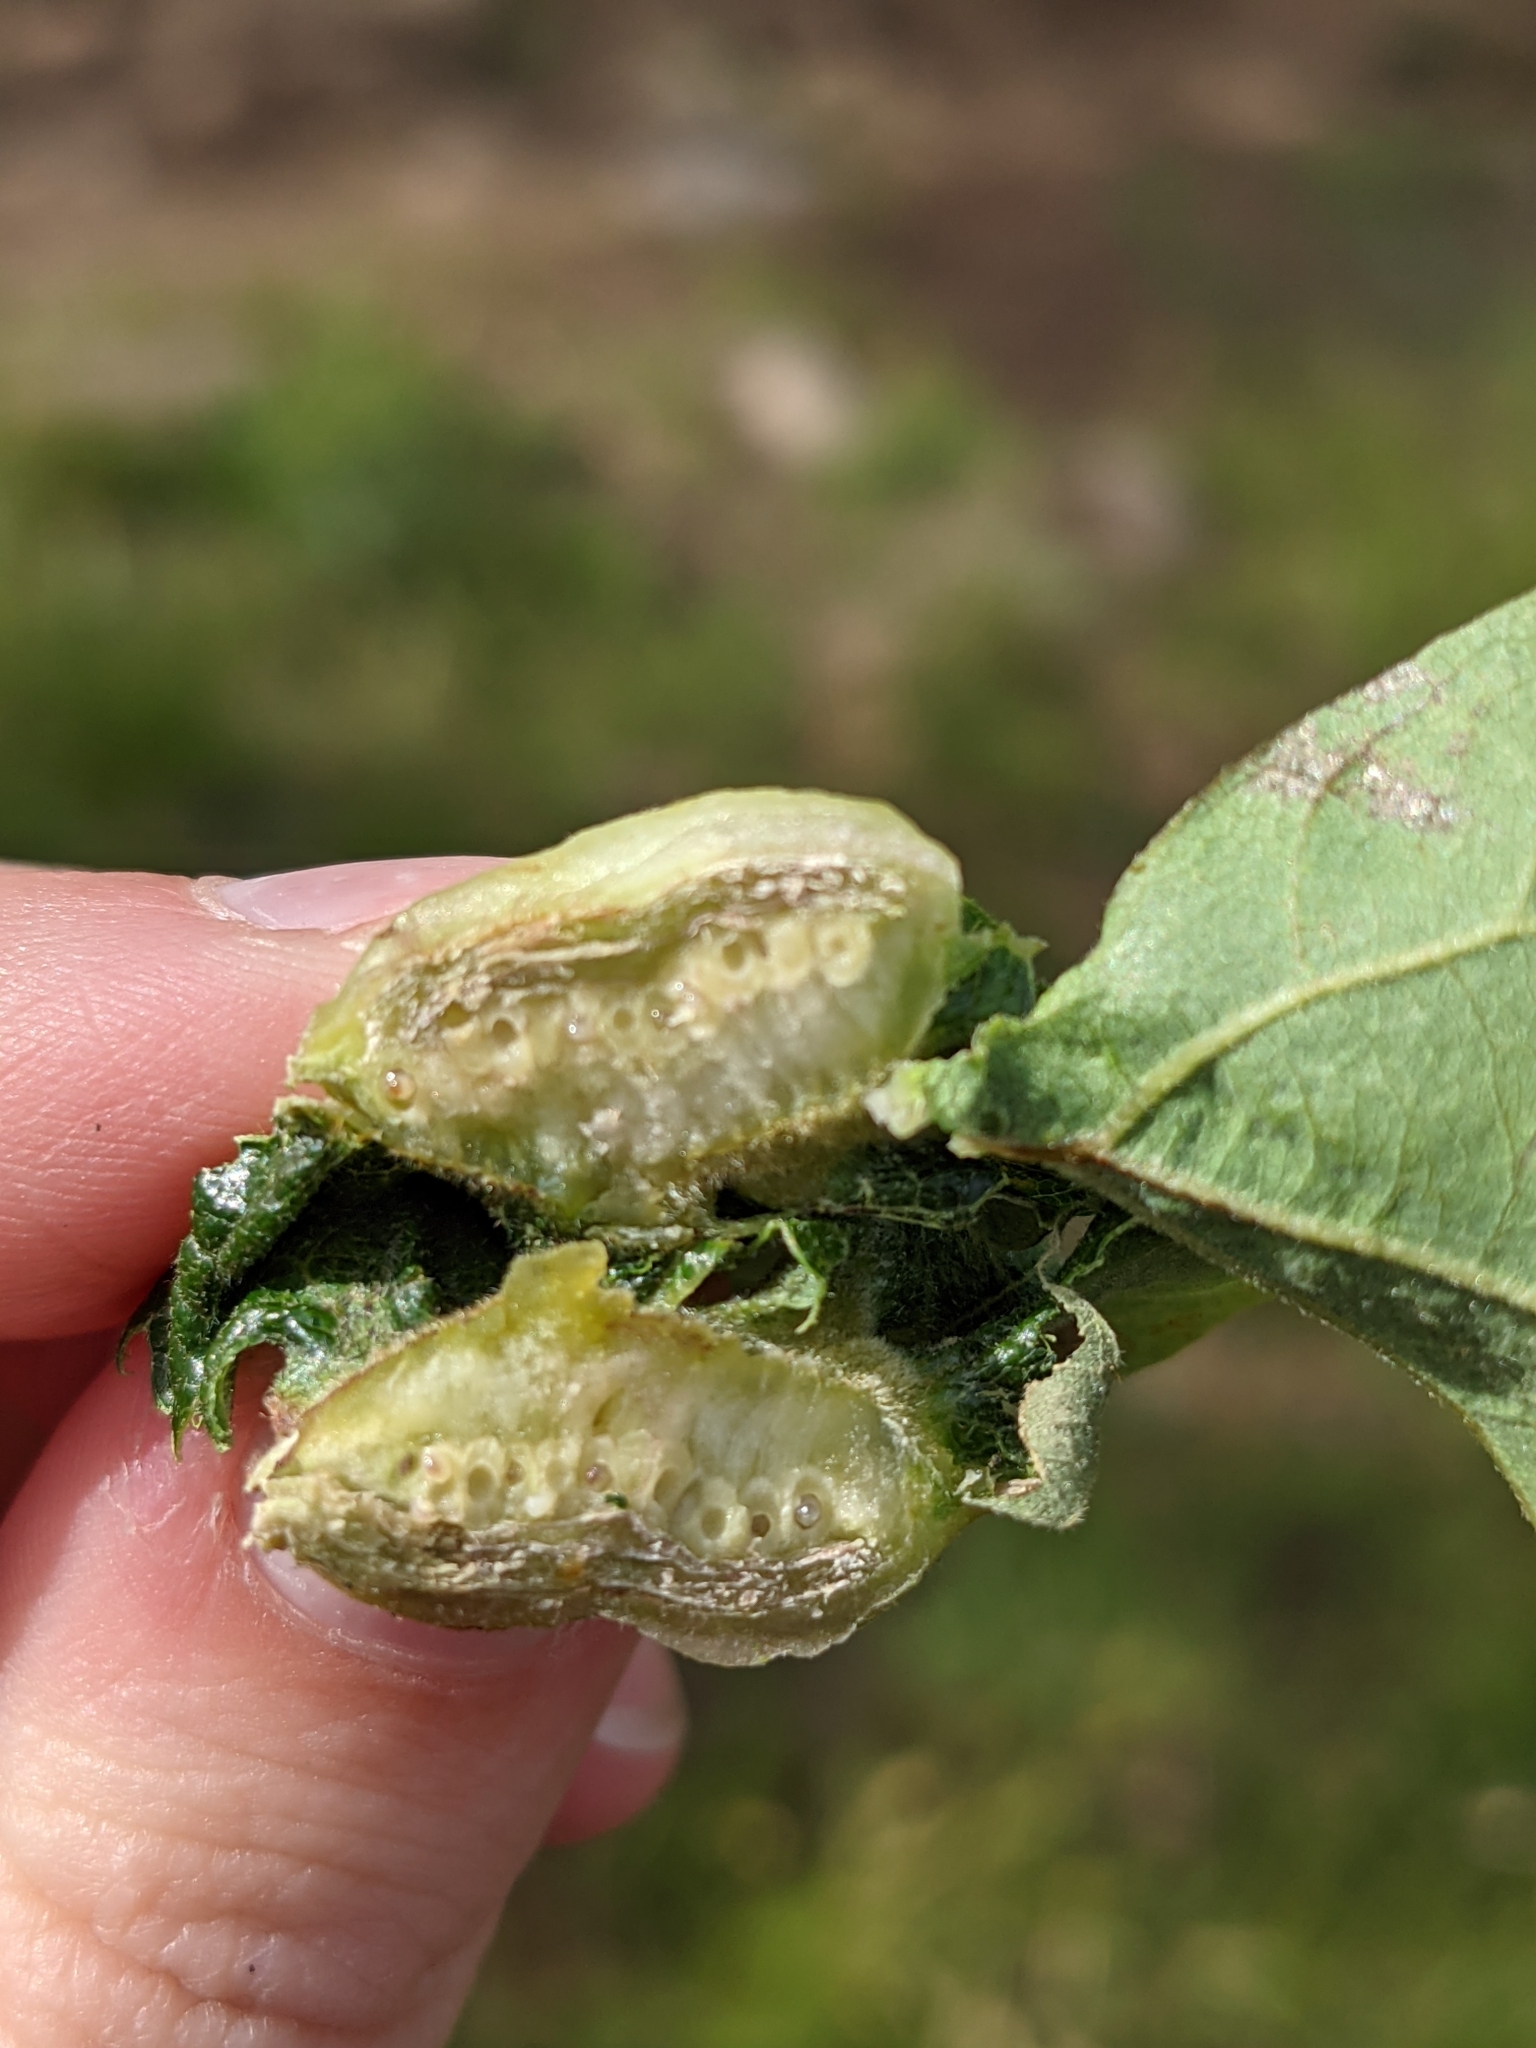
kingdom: Animalia
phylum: Arthropoda
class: Insecta
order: Hymenoptera
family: Cynipidae
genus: Neuroterus
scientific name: Neuroterus
